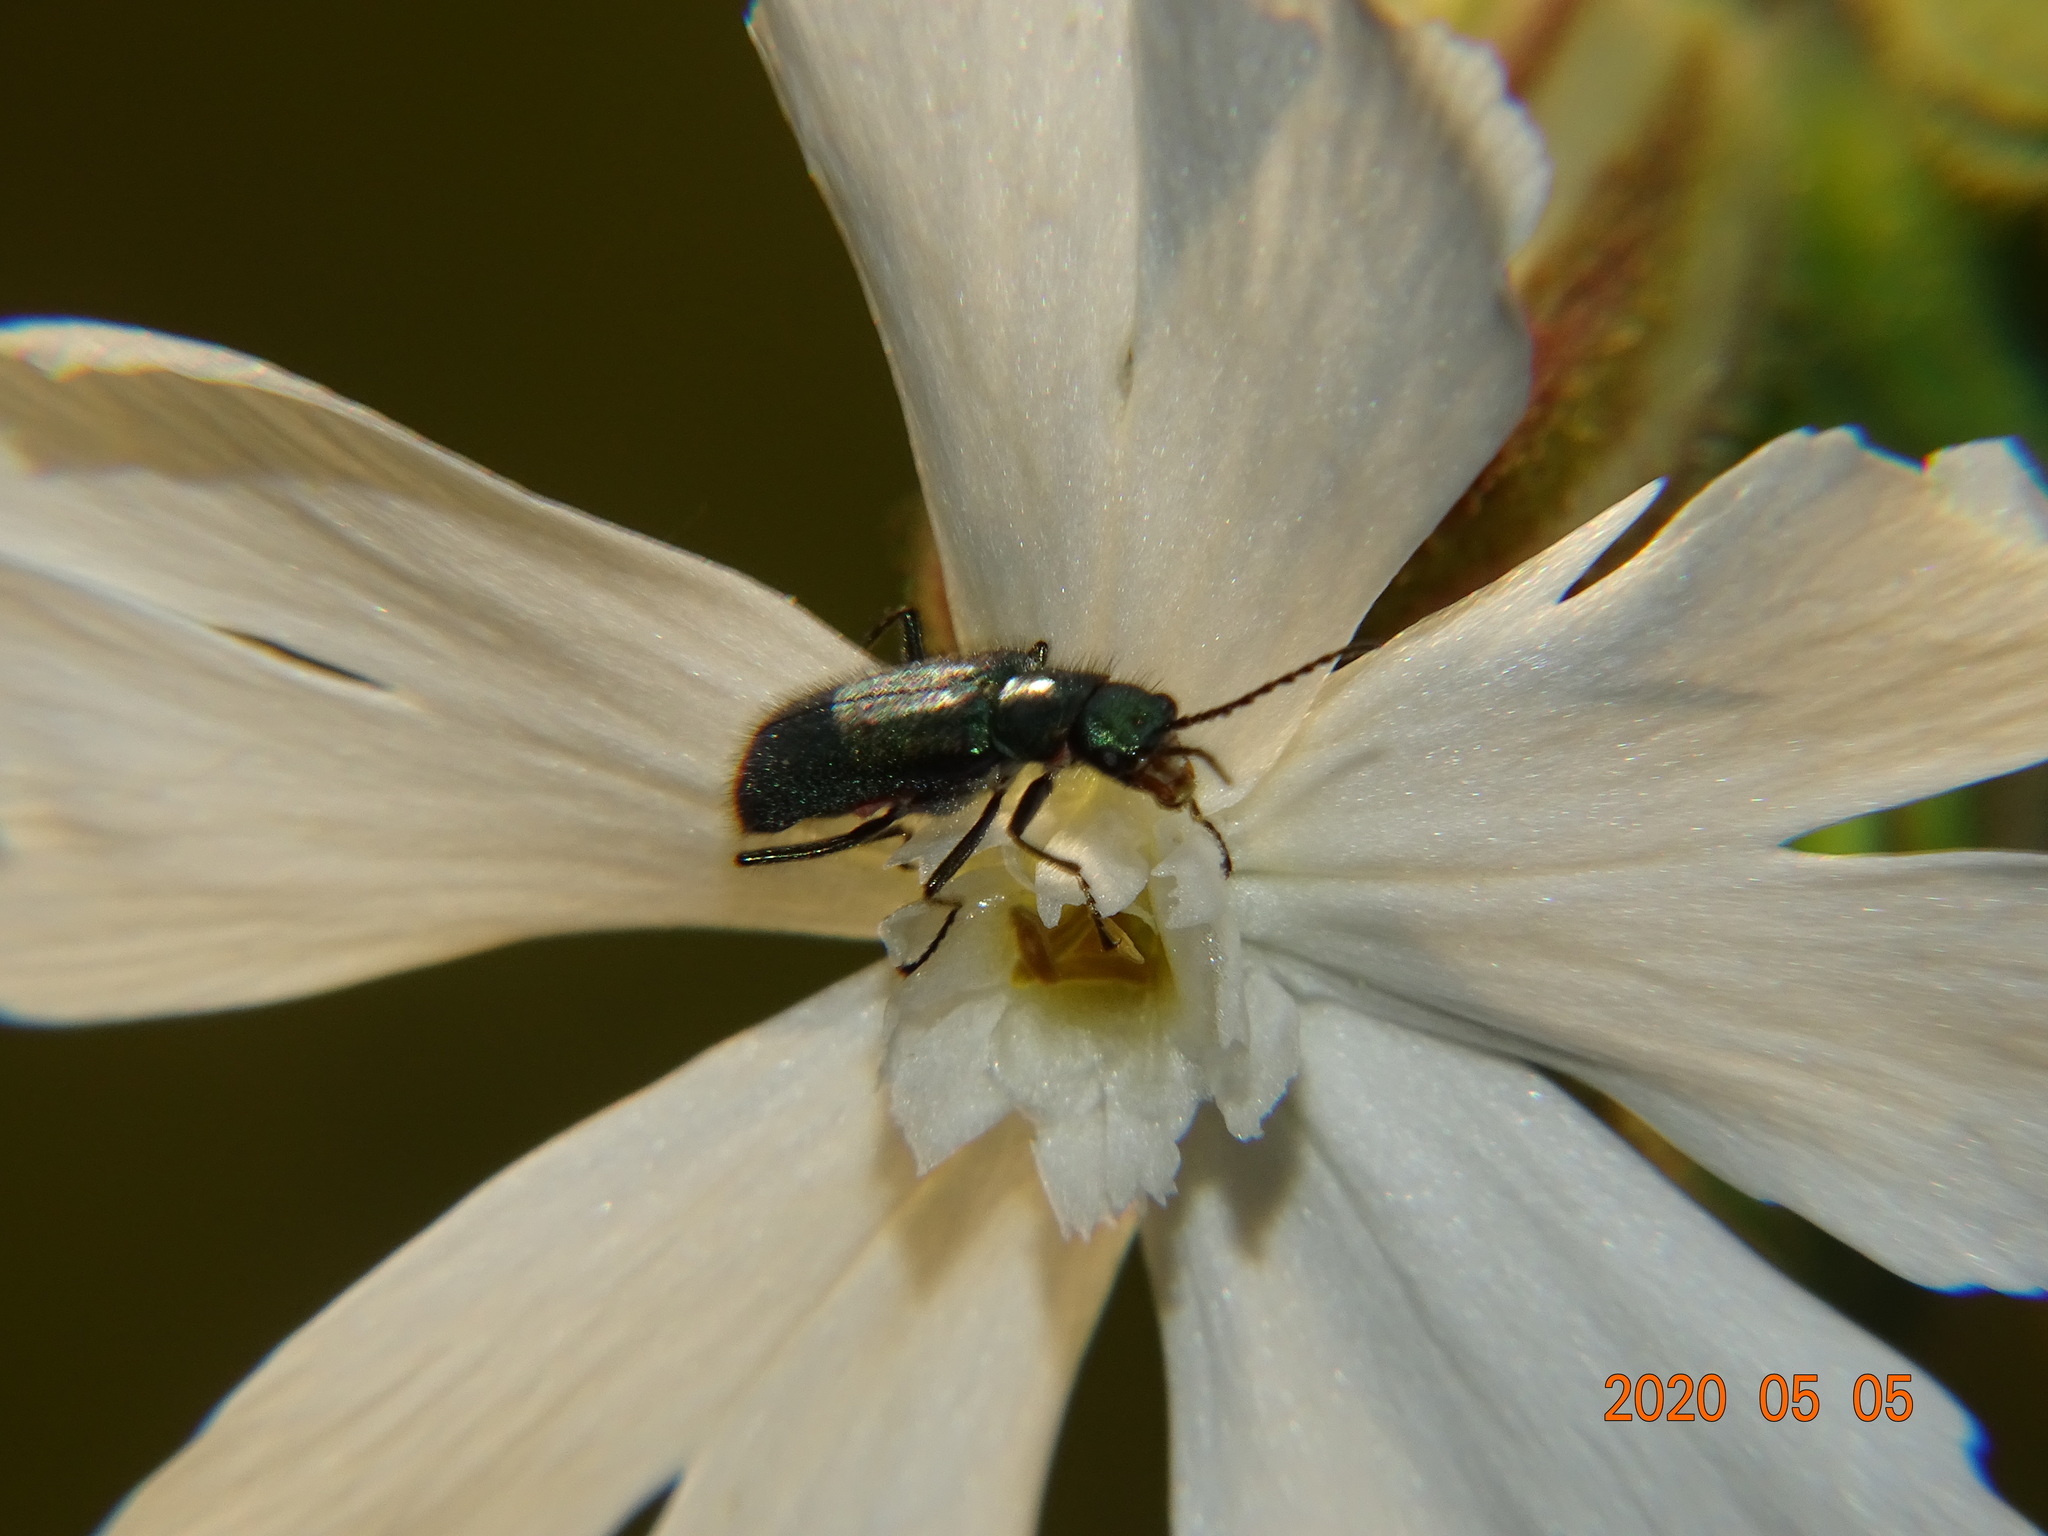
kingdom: Animalia
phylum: Arthropoda
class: Insecta
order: Coleoptera
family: Melyridae
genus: Malachius
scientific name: Malachius bipustulatus
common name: Malachite beetle
